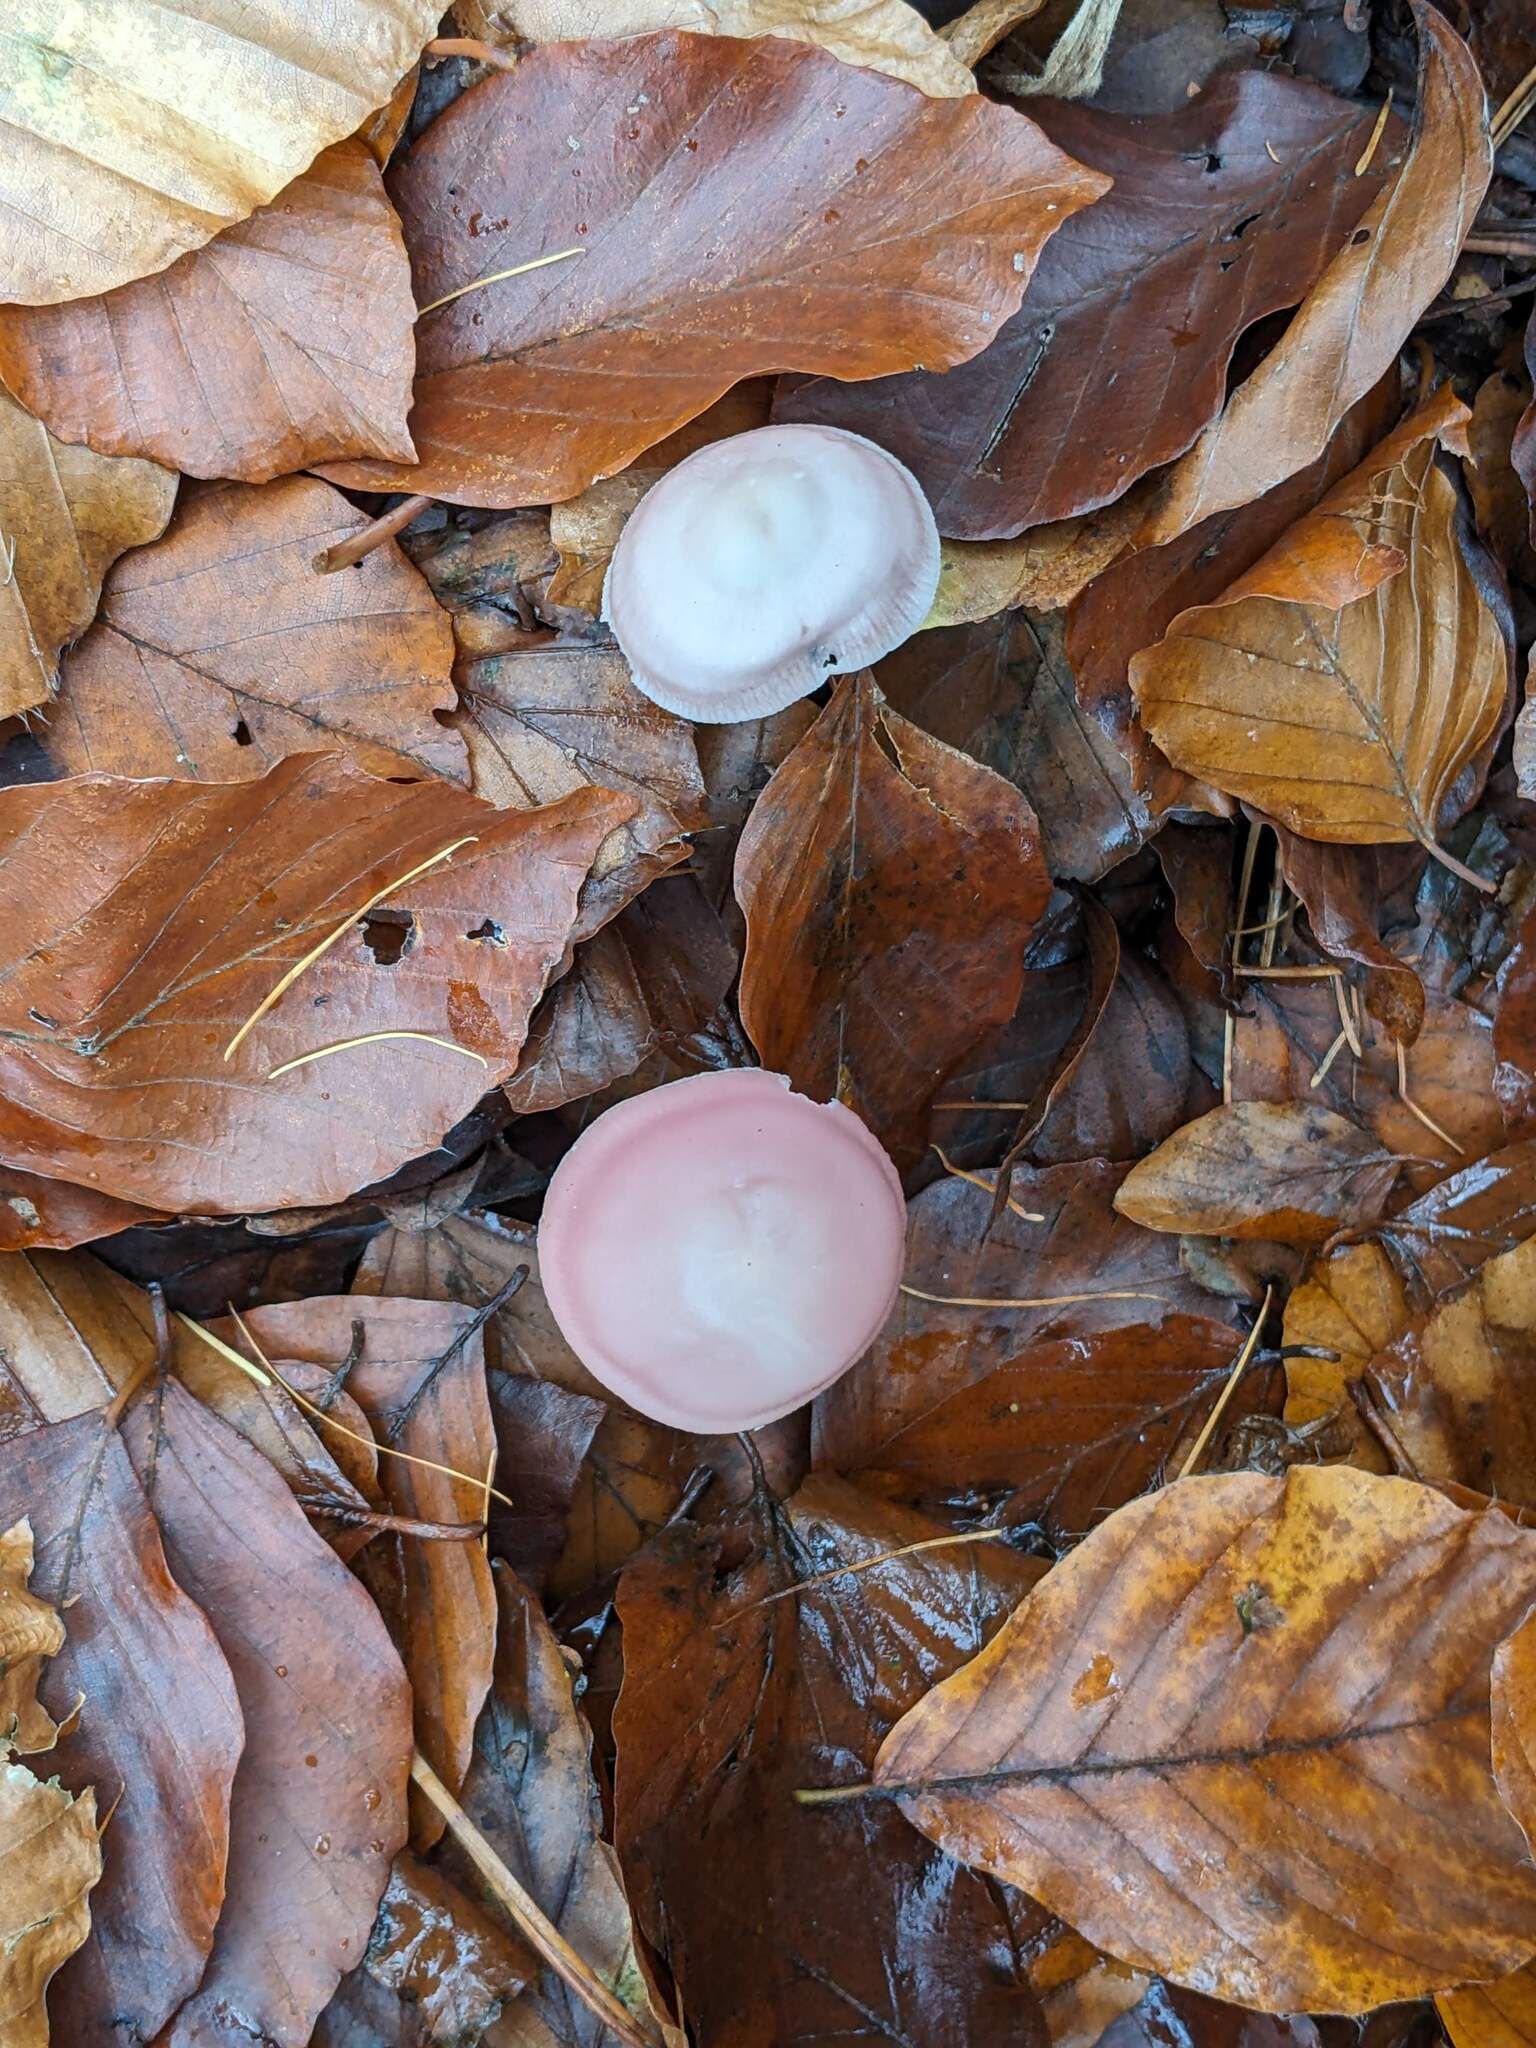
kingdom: Fungi
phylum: Basidiomycota
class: Agaricomycetes
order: Agaricales
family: Mycenaceae
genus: Mycena
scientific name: Mycena rosea
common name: Rosy bonnet
